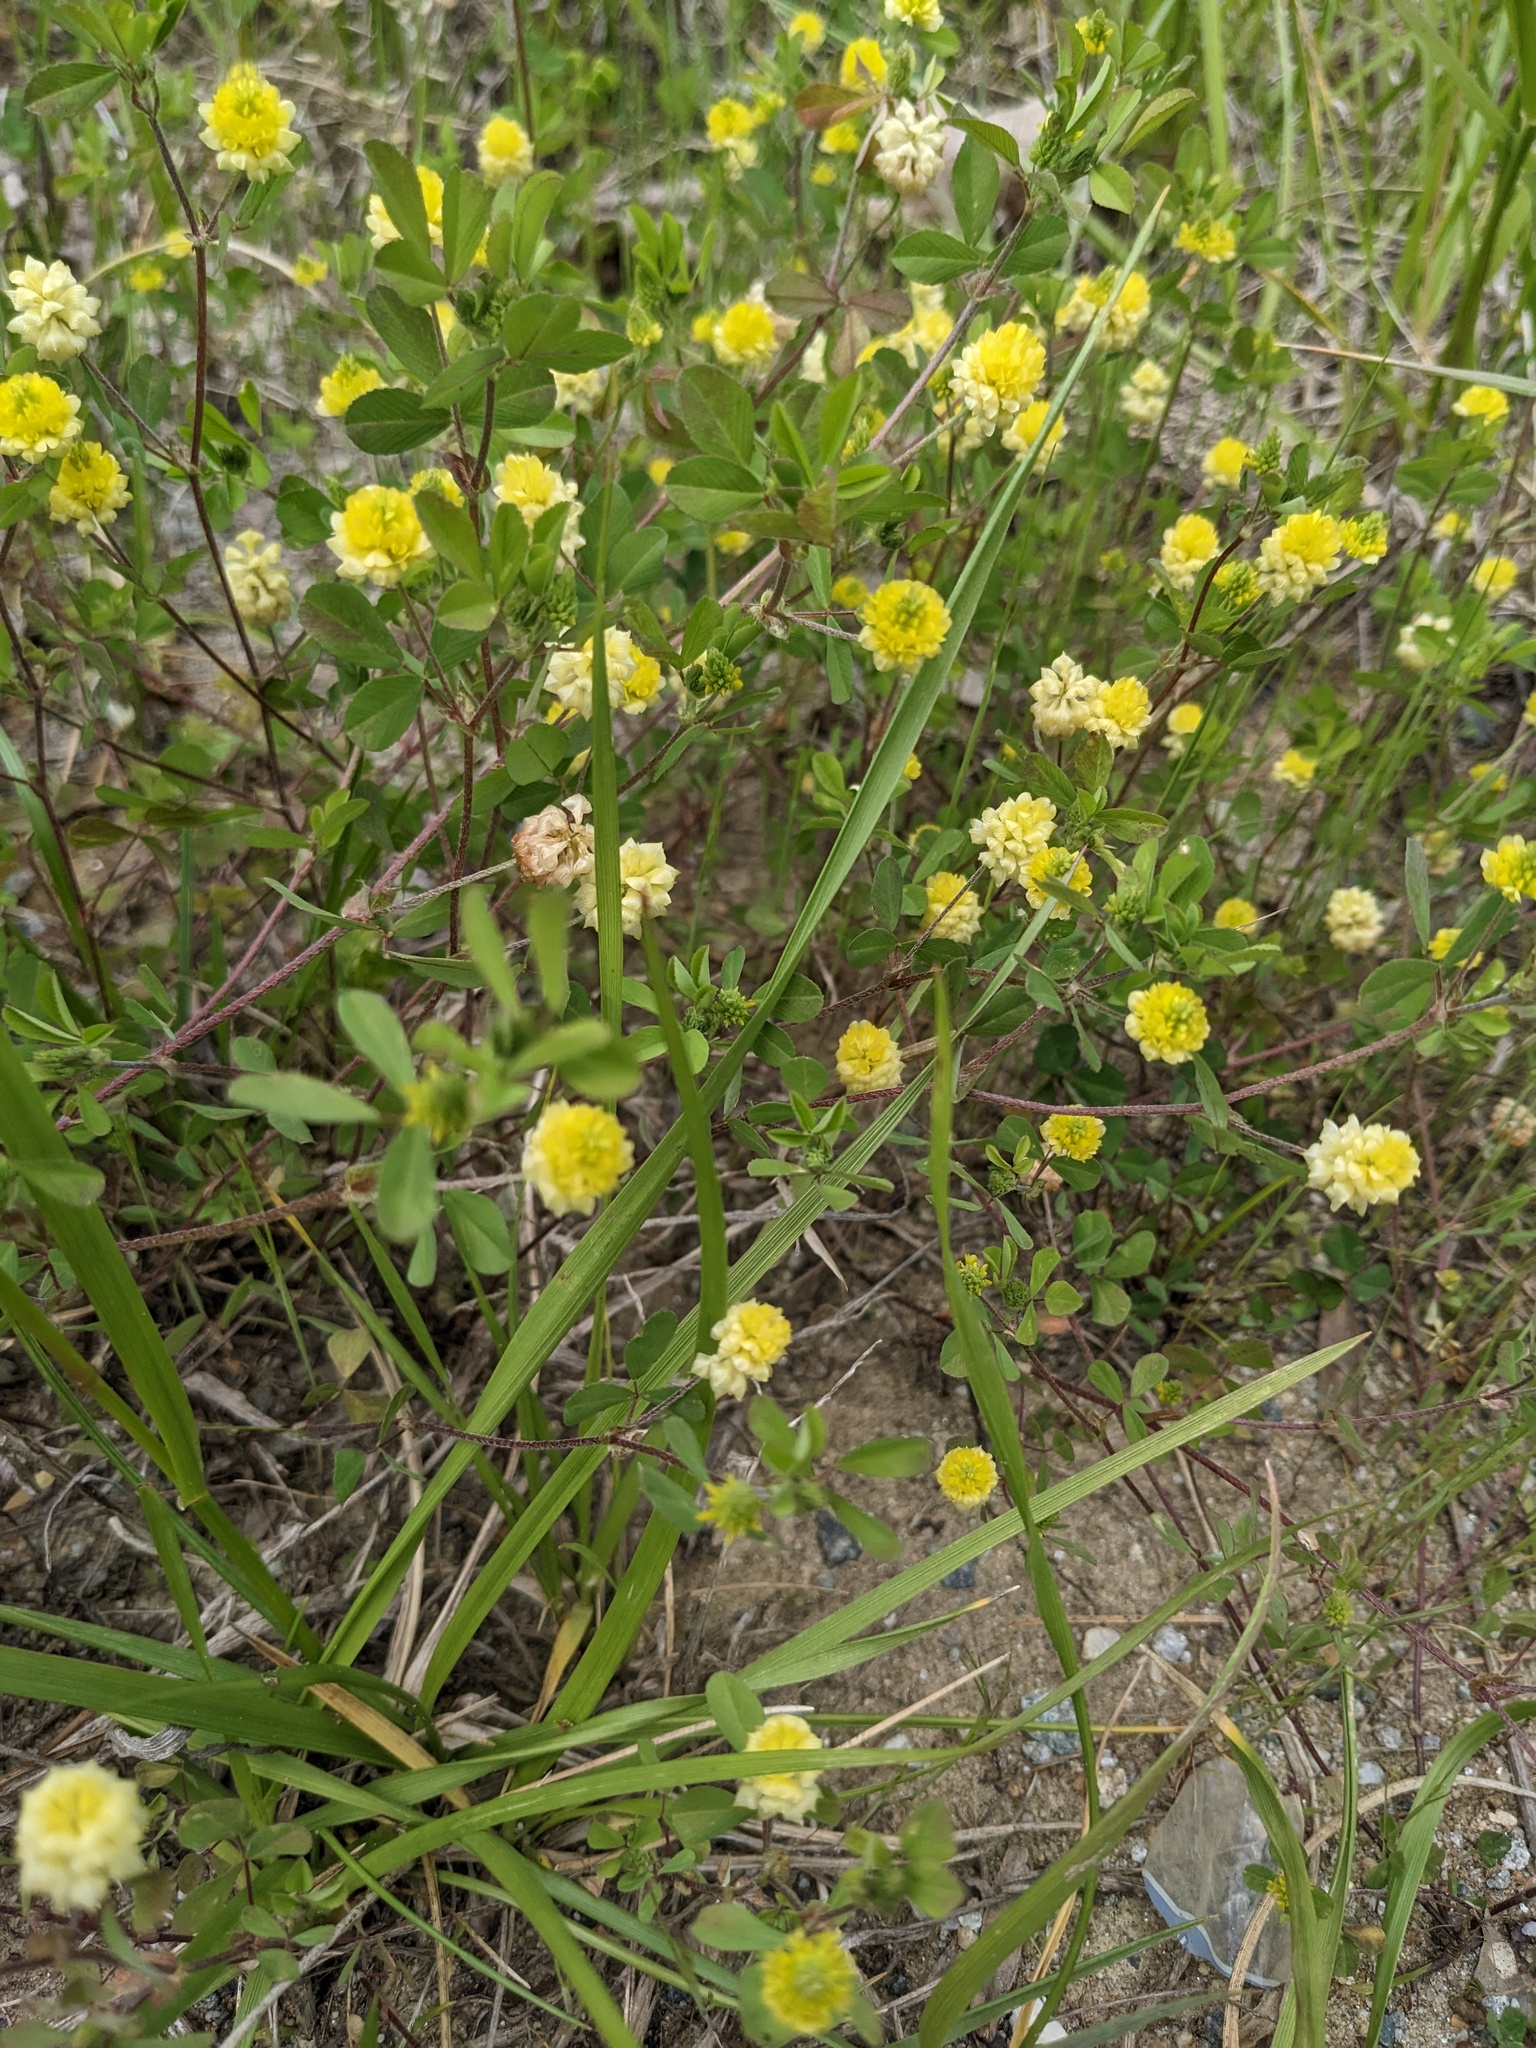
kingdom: Plantae
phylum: Tracheophyta
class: Magnoliopsida
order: Fabales
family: Fabaceae
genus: Trifolium
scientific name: Trifolium campestre
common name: Field clover
